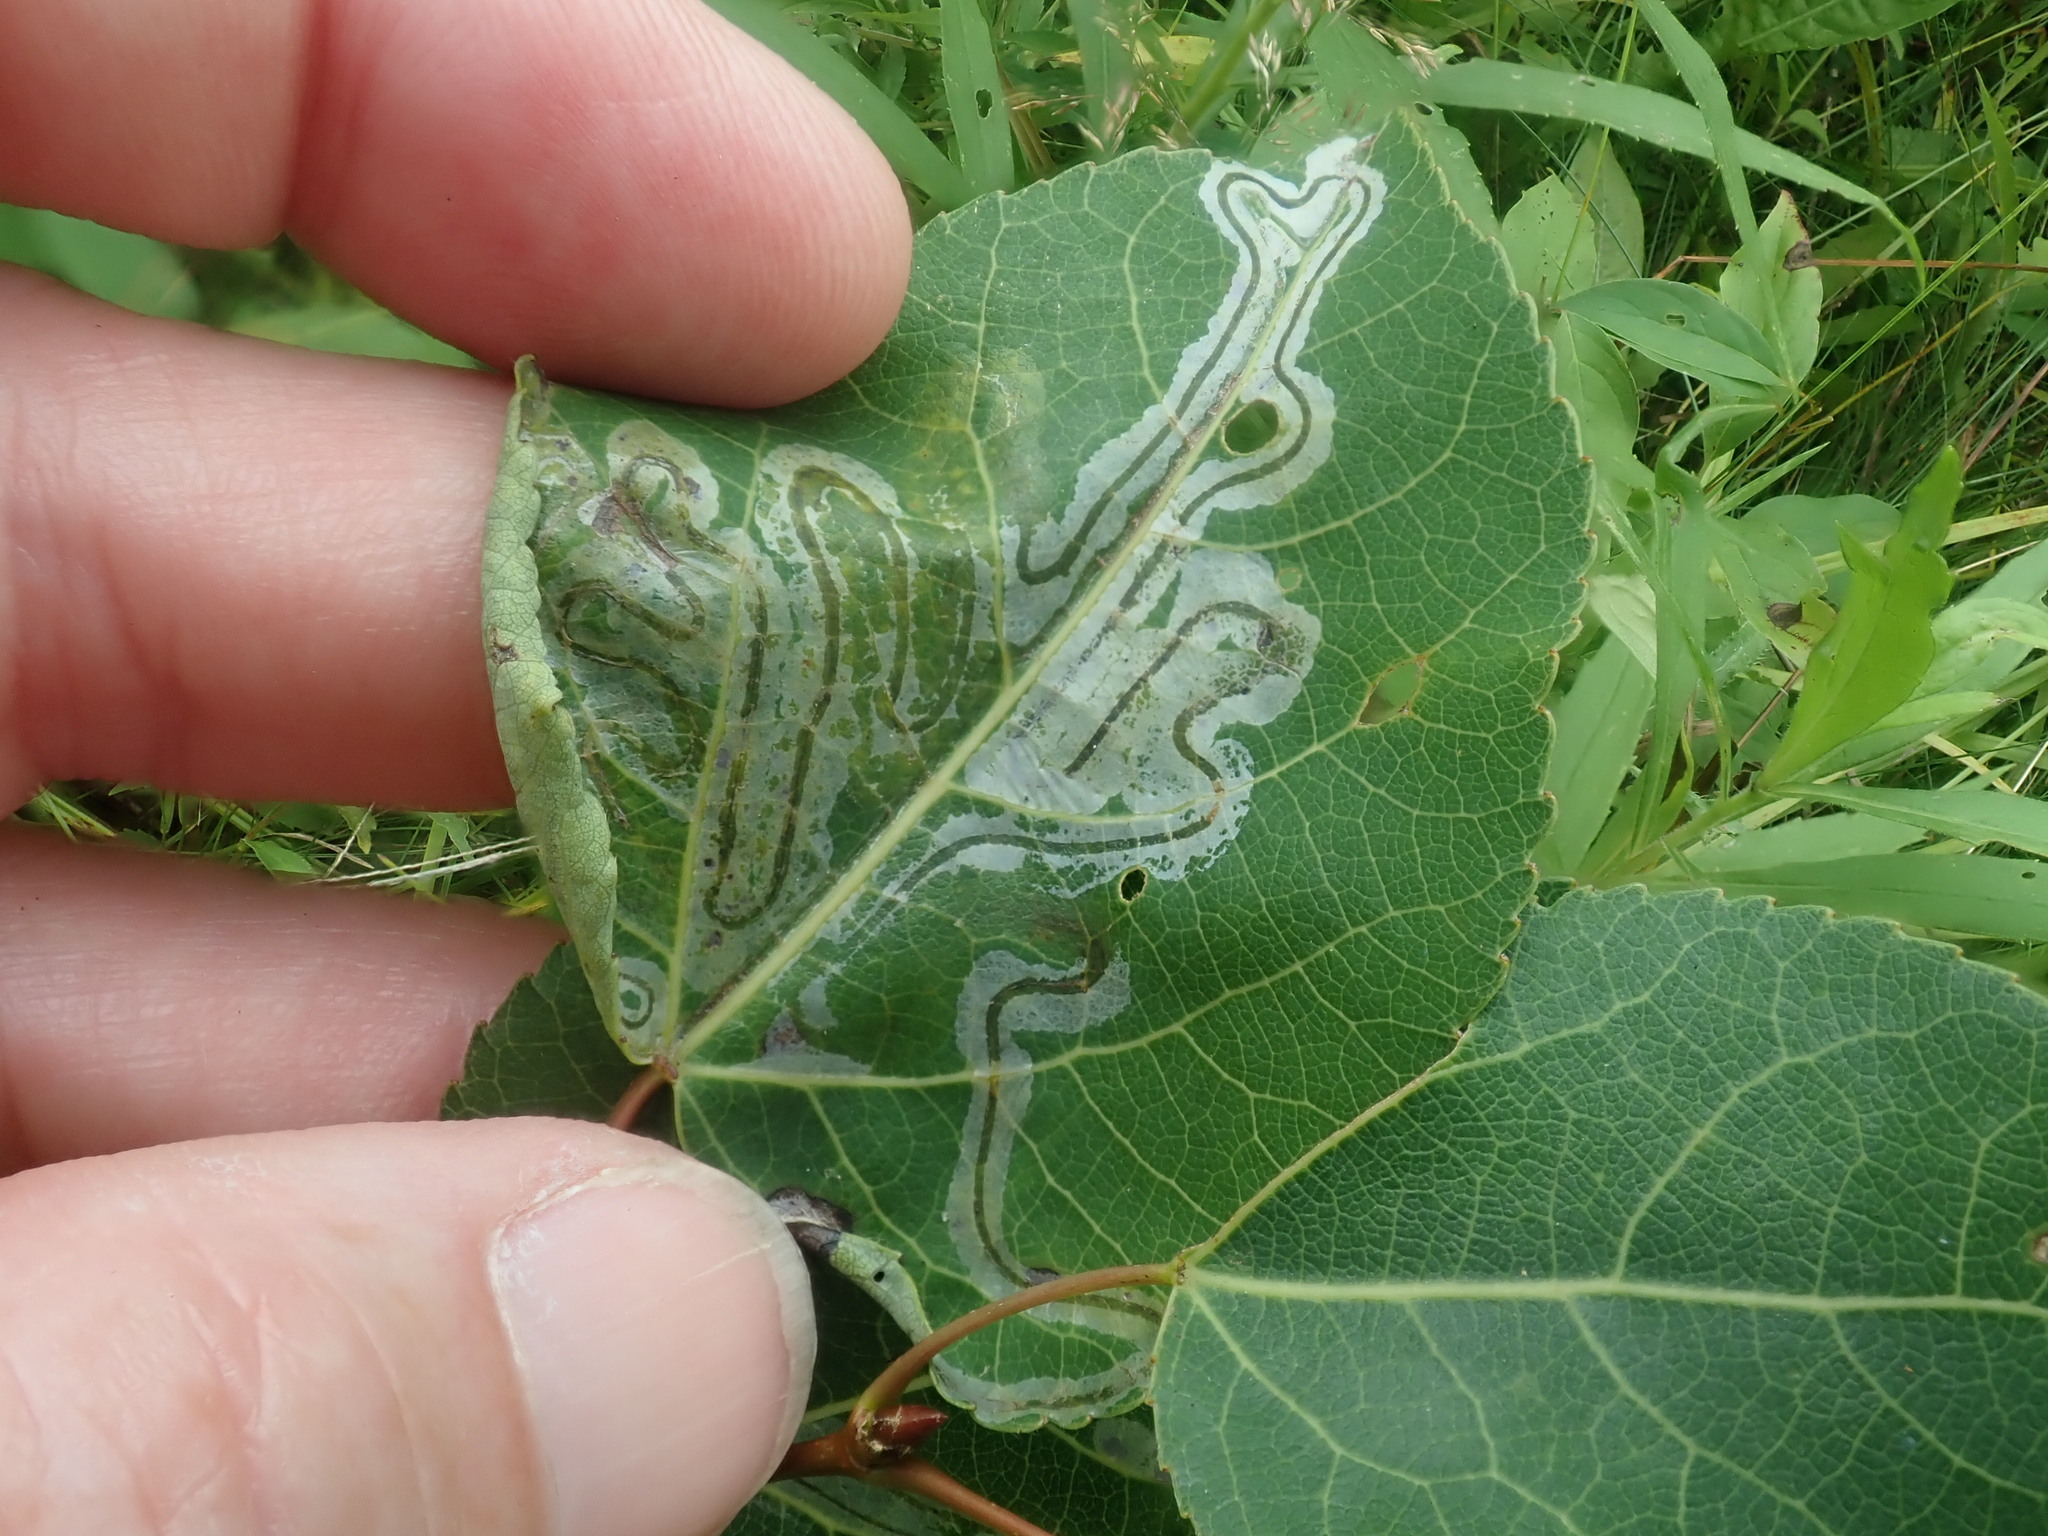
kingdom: Animalia
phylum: Arthropoda
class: Insecta
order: Lepidoptera
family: Gracillariidae
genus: Phyllocnistis
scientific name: Phyllocnistis populiella
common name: Aspen serpentine leafminer moth
